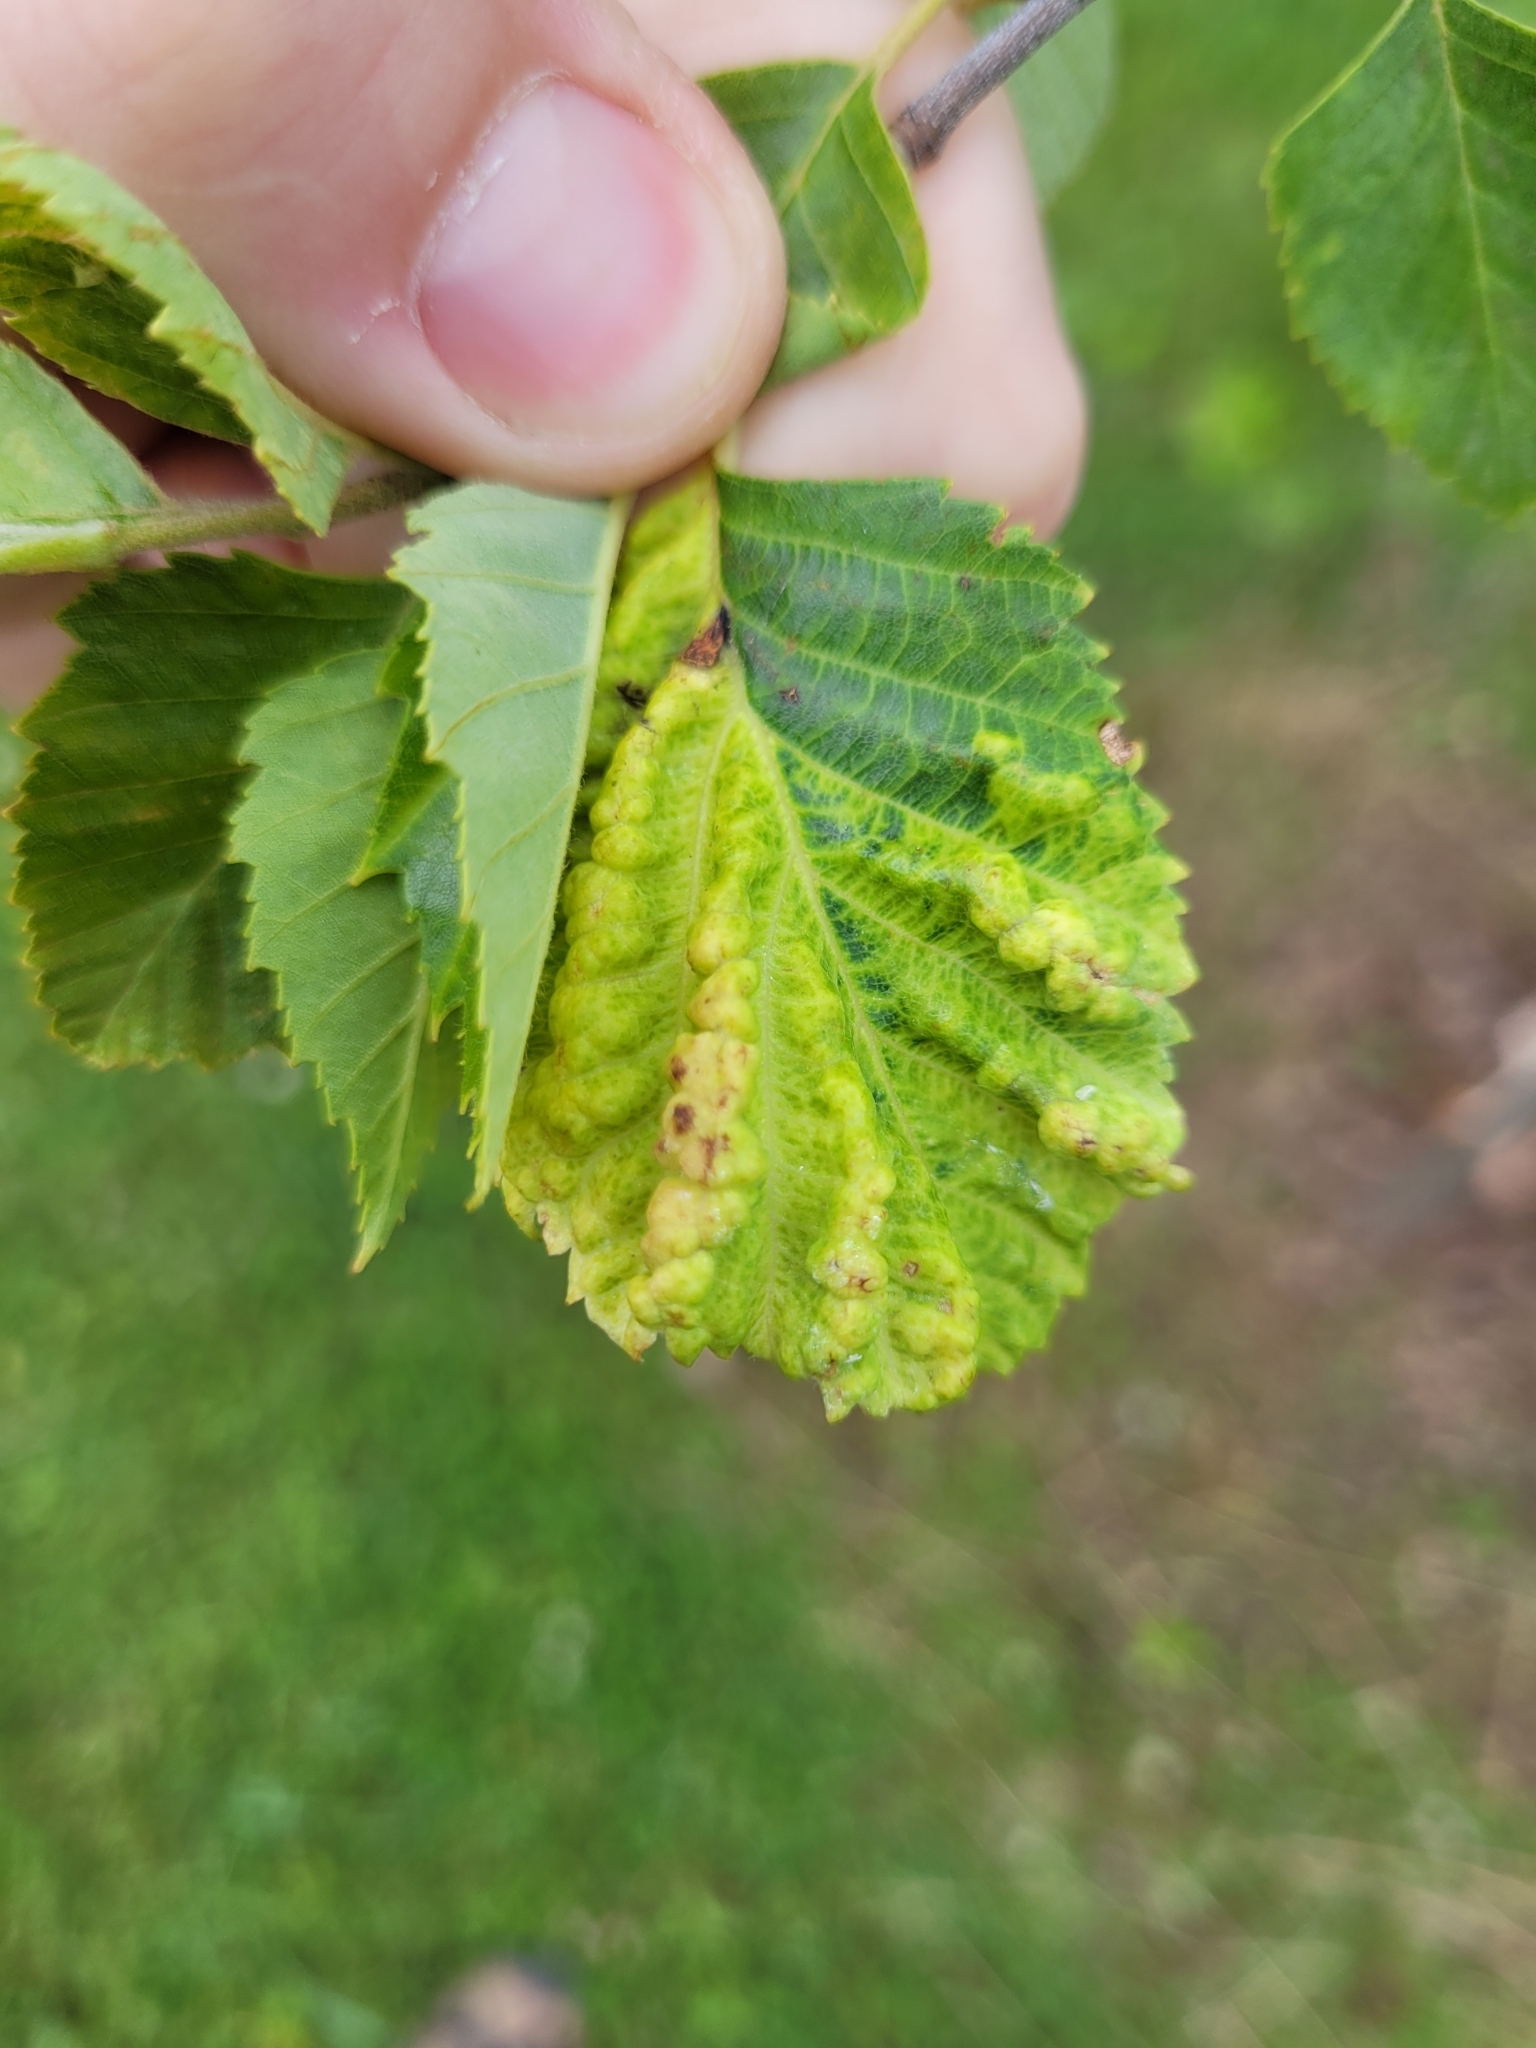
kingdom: Animalia
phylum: Arthropoda
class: Insecta
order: Hemiptera
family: Aphididae
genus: Hamamelistes
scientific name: Hamamelistes spinosus
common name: Witch hazel gall aphid
